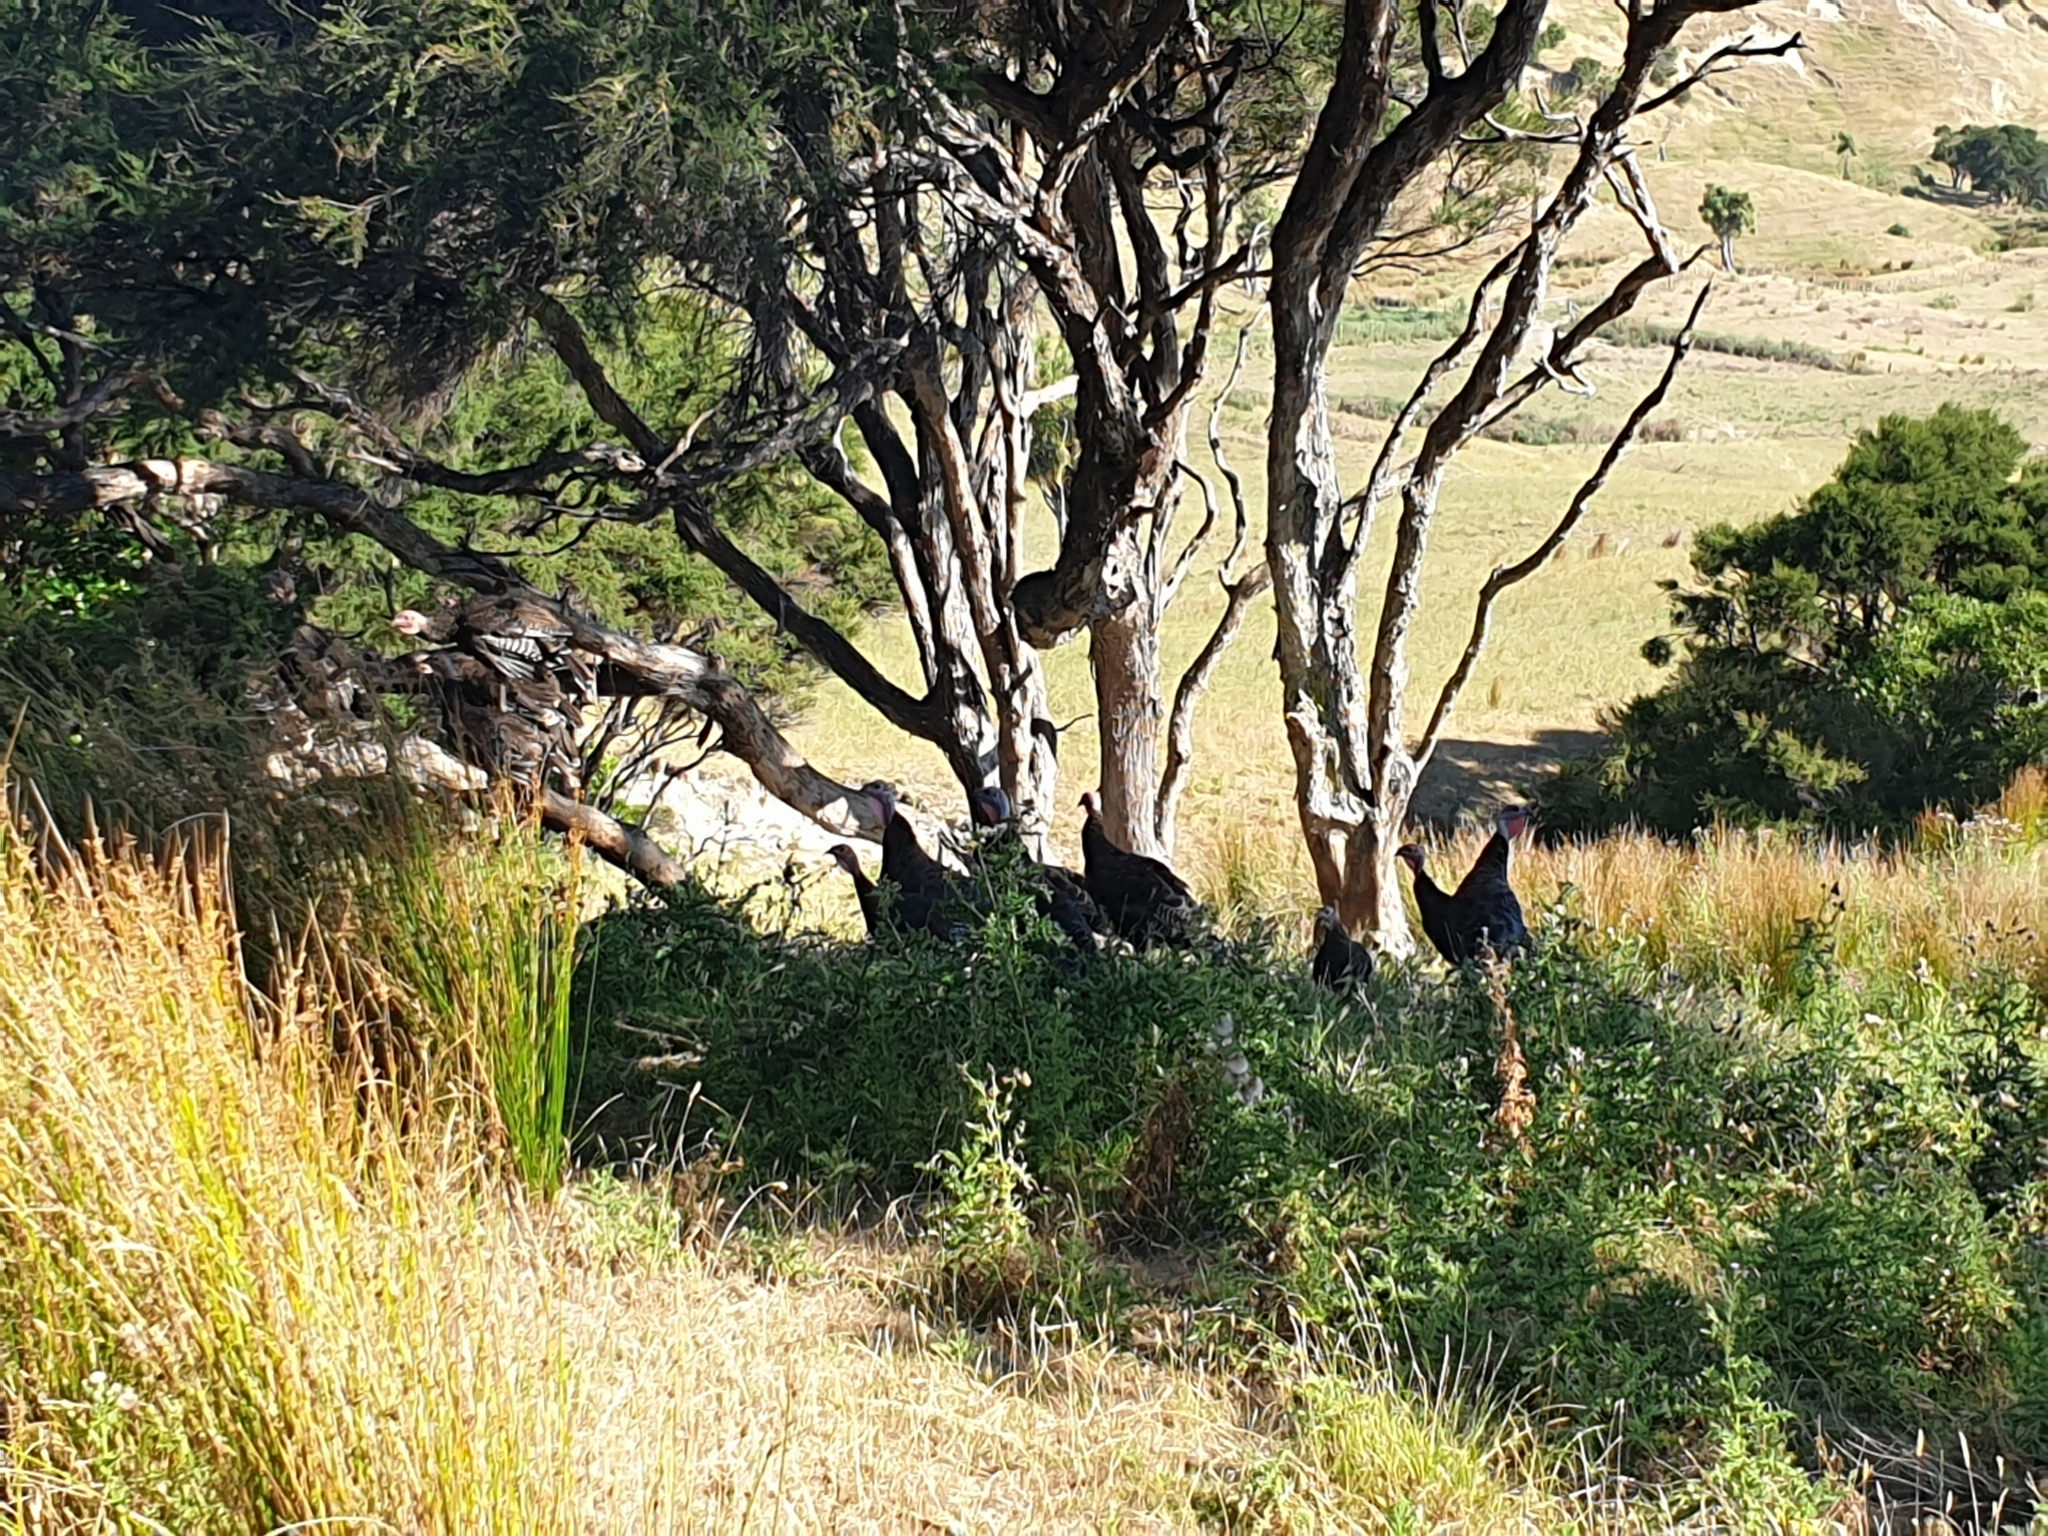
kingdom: Animalia
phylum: Chordata
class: Aves
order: Galliformes
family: Phasianidae
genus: Meleagris
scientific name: Meleagris gallopavo
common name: Wild turkey
